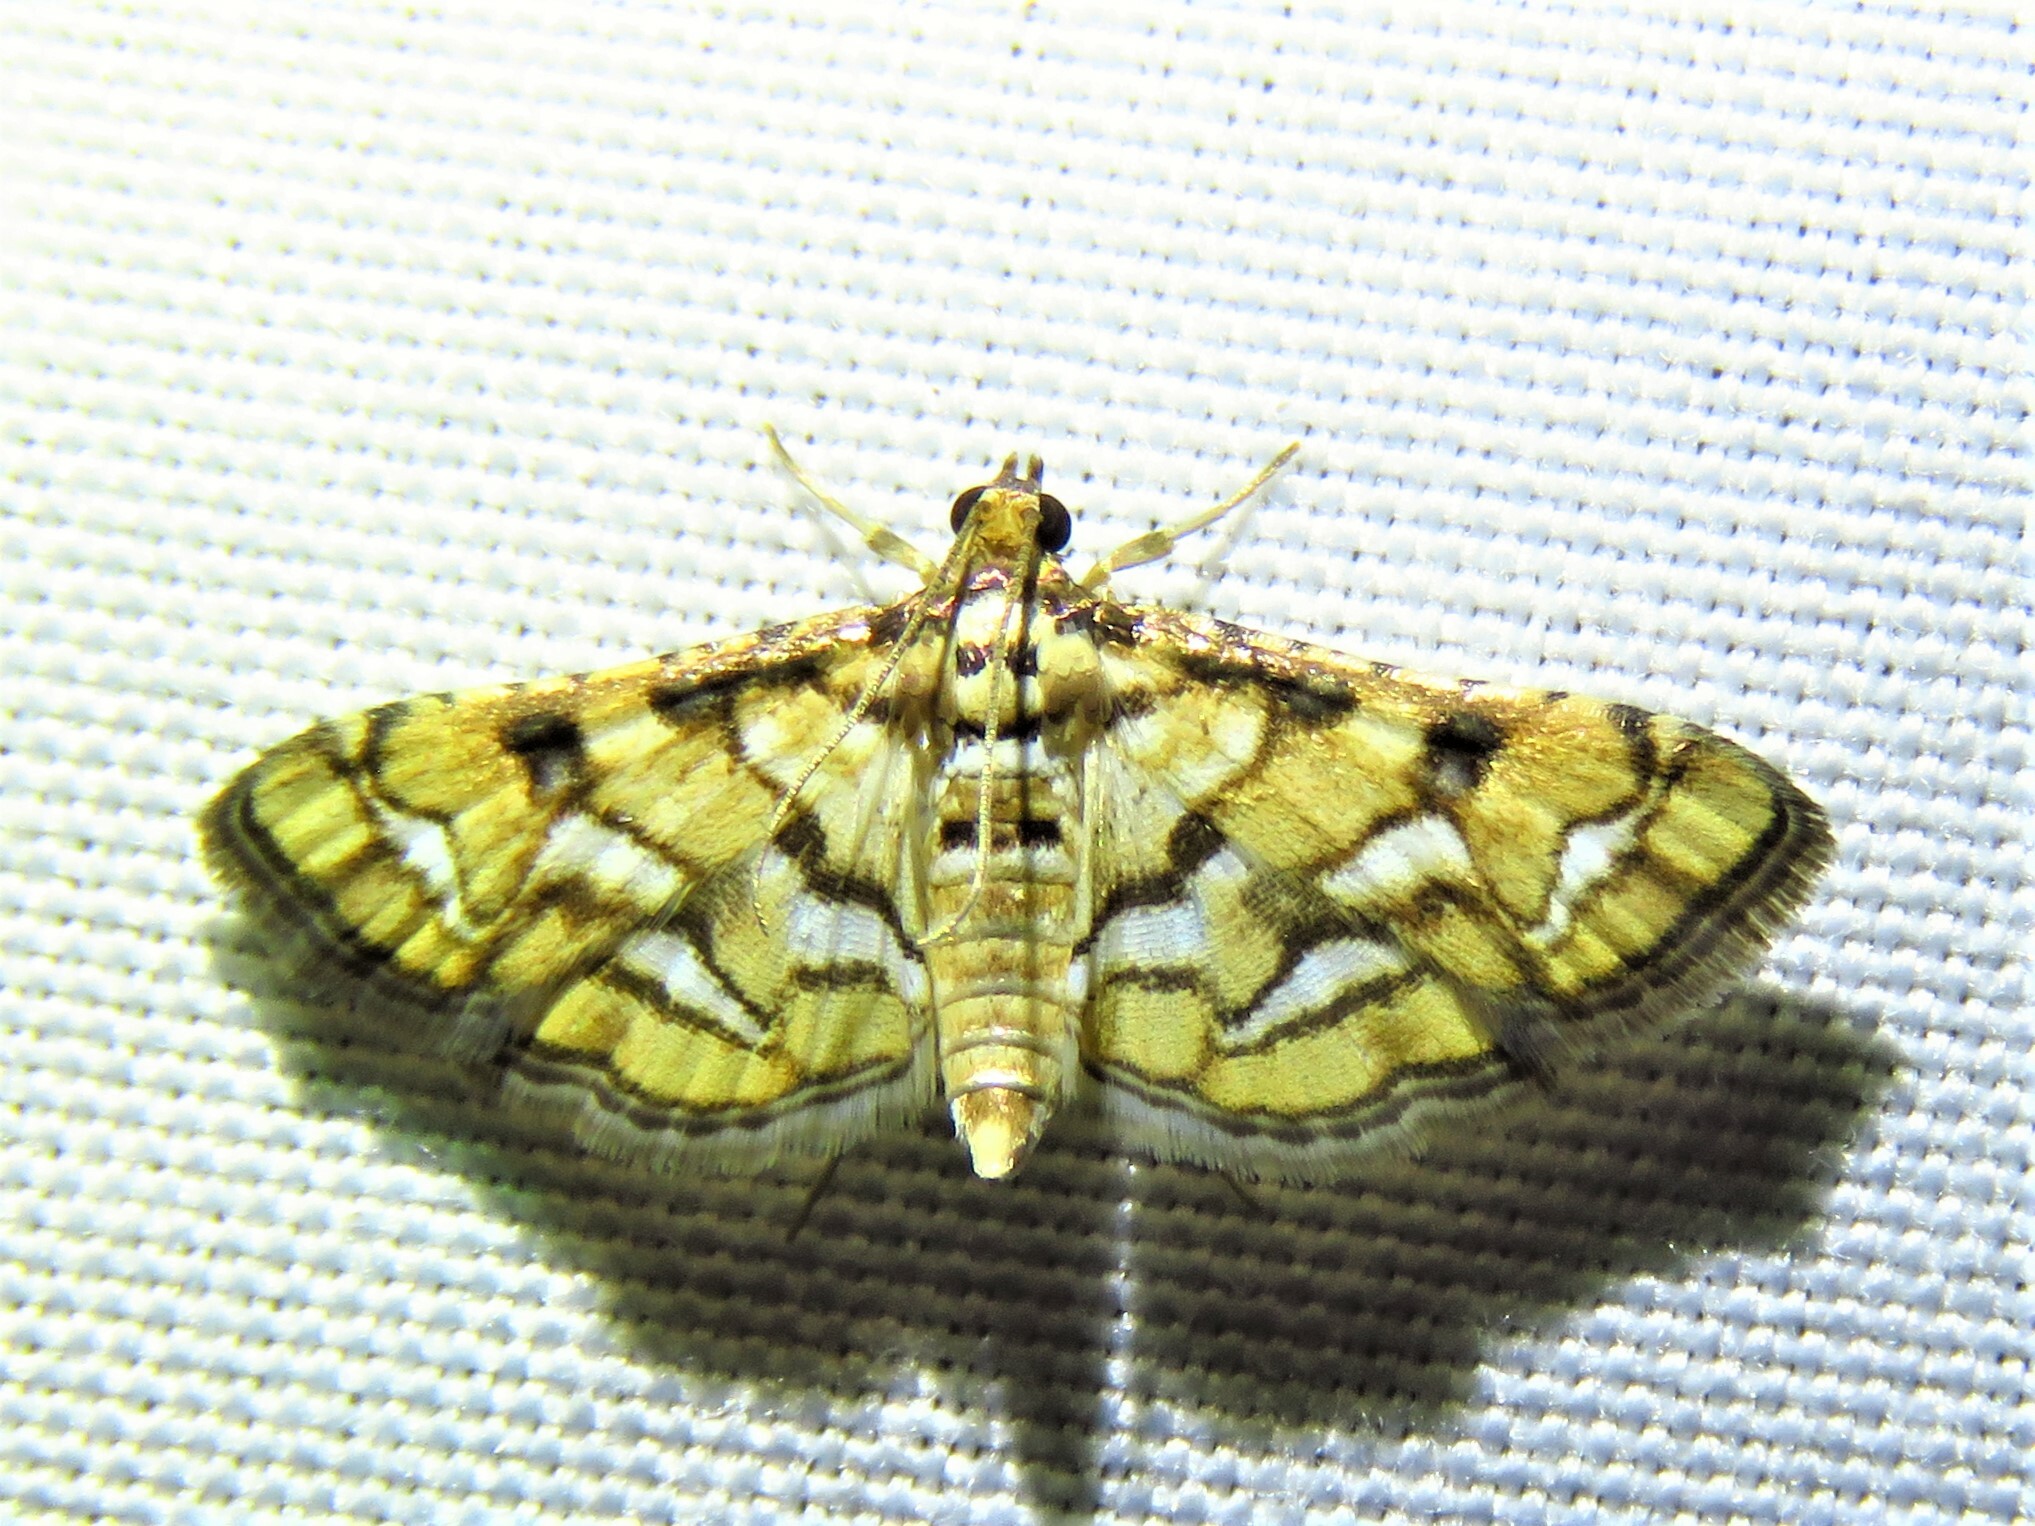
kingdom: Animalia
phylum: Arthropoda
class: Insecta
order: Lepidoptera
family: Crambidae
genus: Hileithia
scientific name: Hileithia magualis
